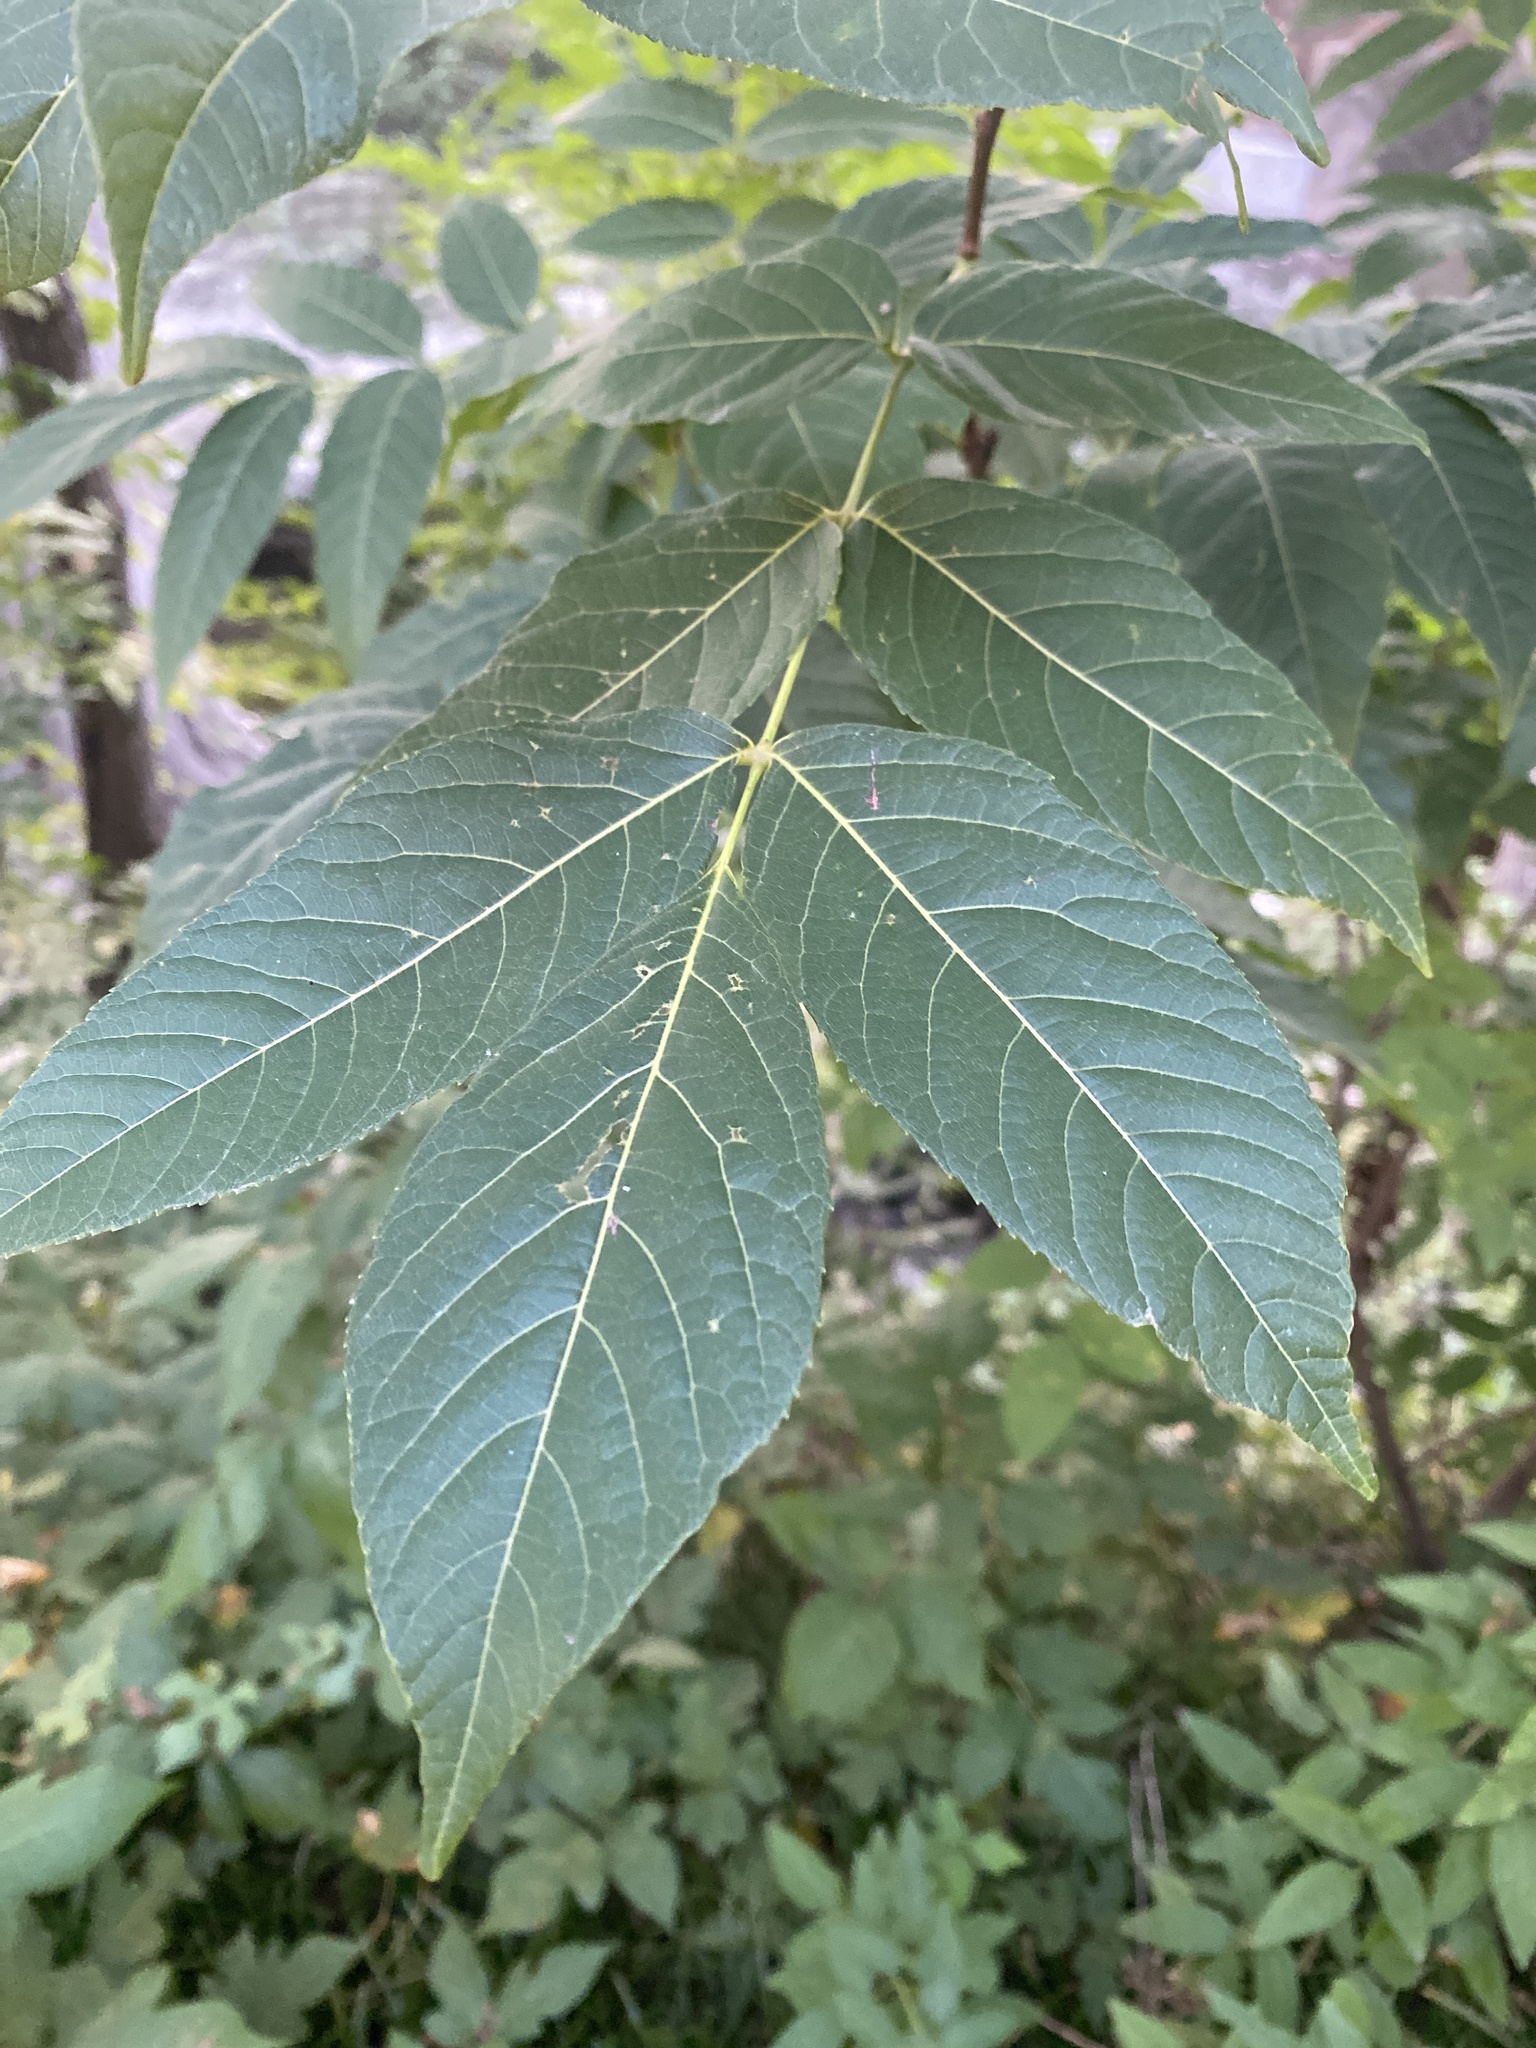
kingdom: Plantae
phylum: Tracheophyta
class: Magnoliopsida
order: Sapindales
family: Sapindaceae
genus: Ungnadia
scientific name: Ungnadia speciosa
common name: Texas-buckeye
